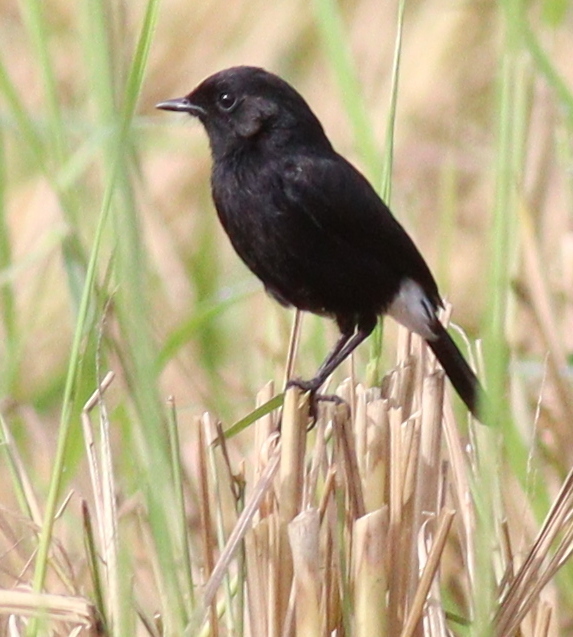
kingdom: Animalia
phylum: Chordata
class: Aves
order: Passeriformes
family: Muscicapidae
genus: Saxicola
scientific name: Saxicola caprata
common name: Pied bush chat
